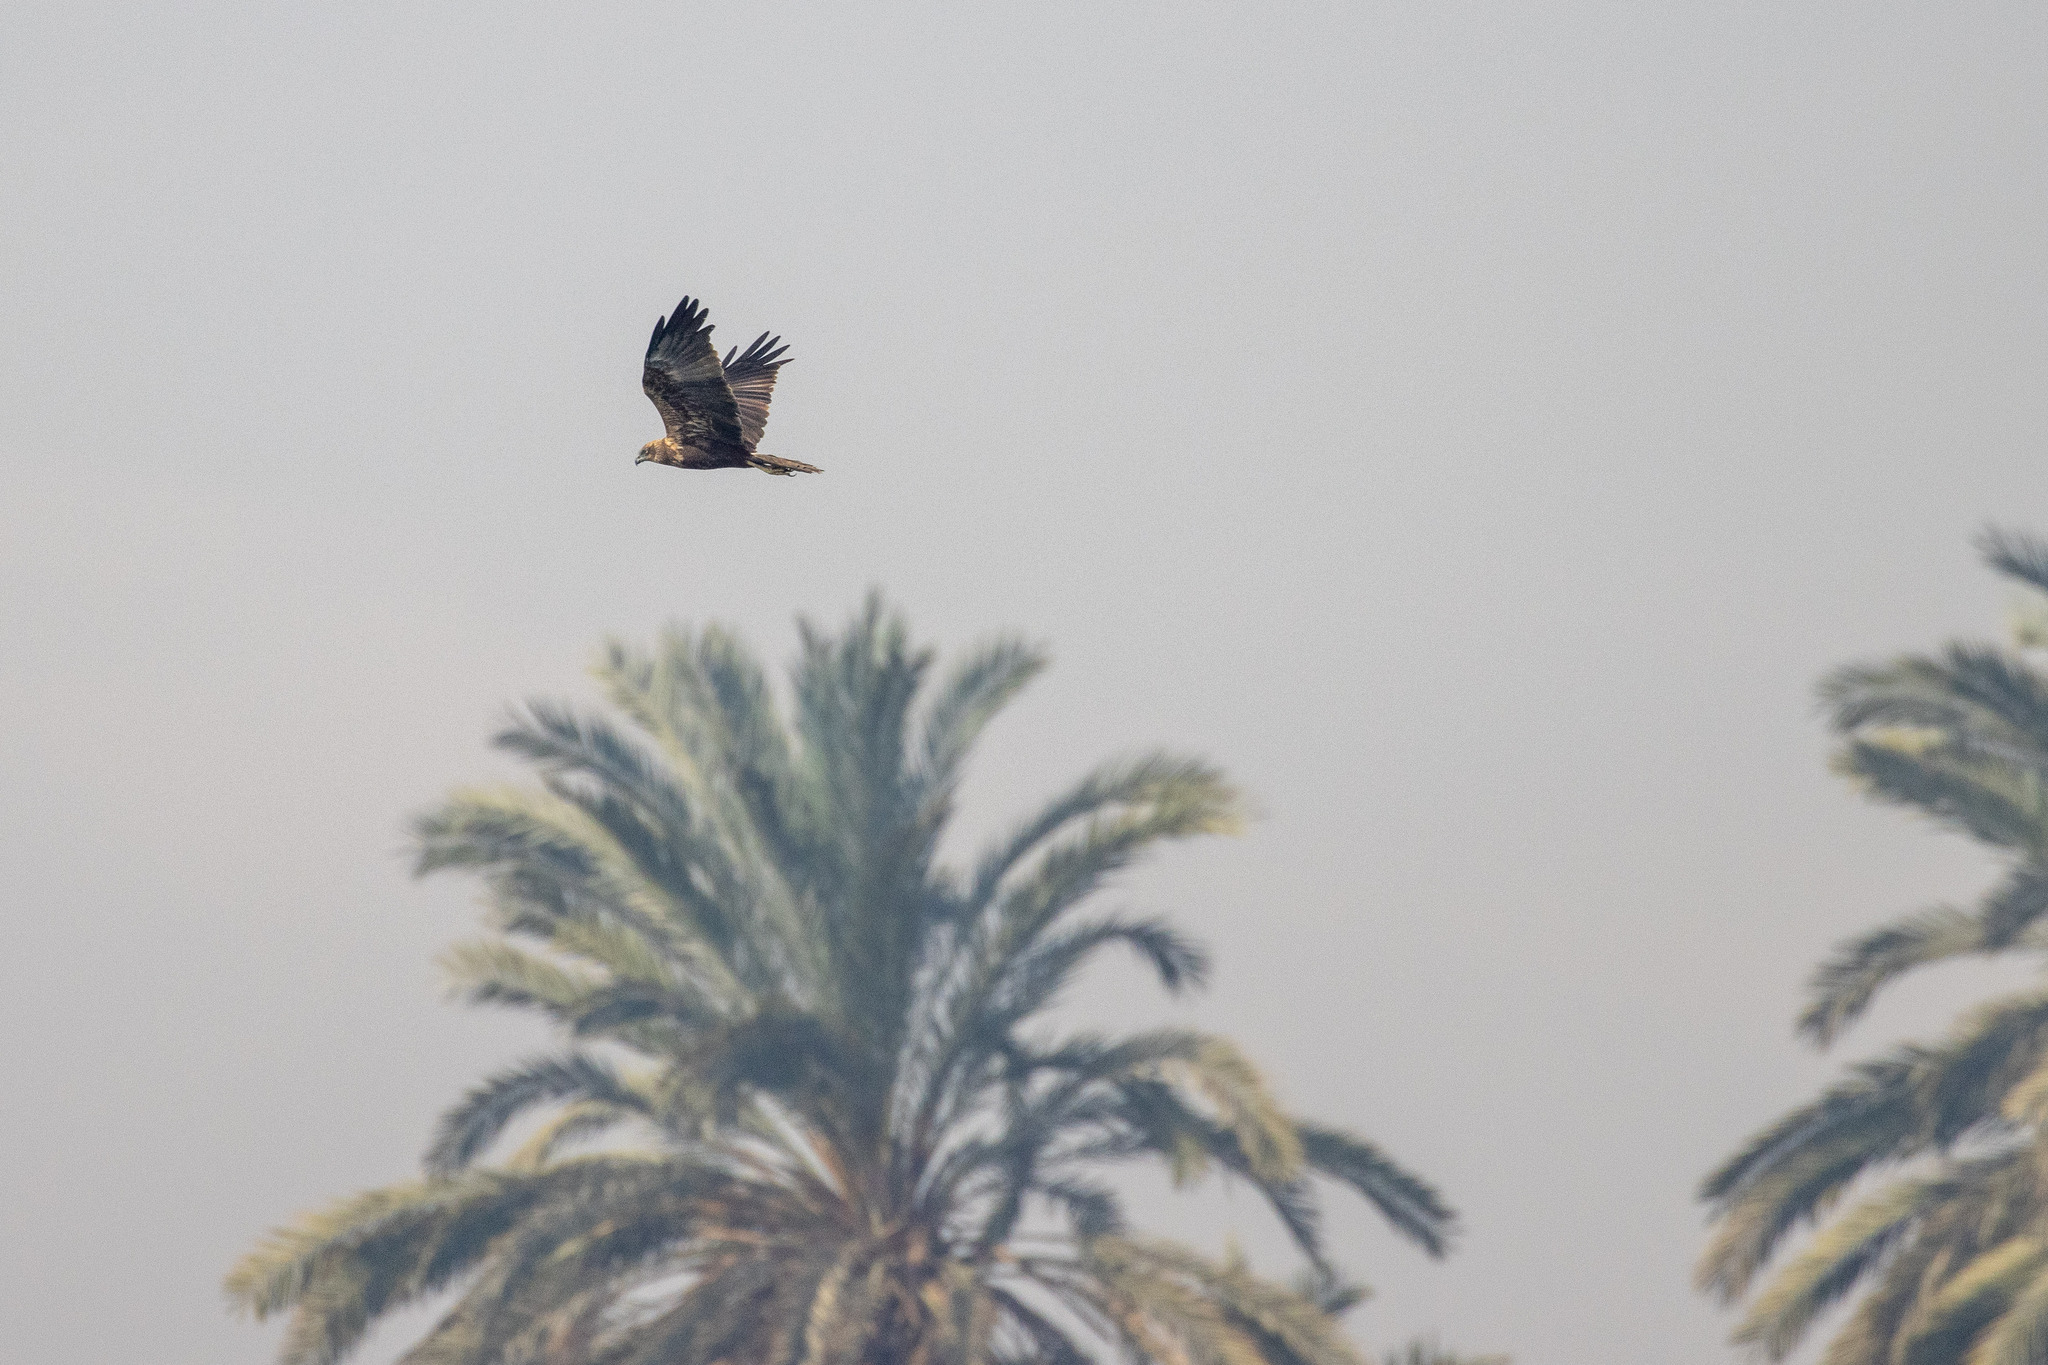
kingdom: Animalia
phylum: Chordata
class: Aves
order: Accipitriformes
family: Accipitridae
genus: Circus
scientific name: Circus aeruginosus
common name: Western marsh harrier
